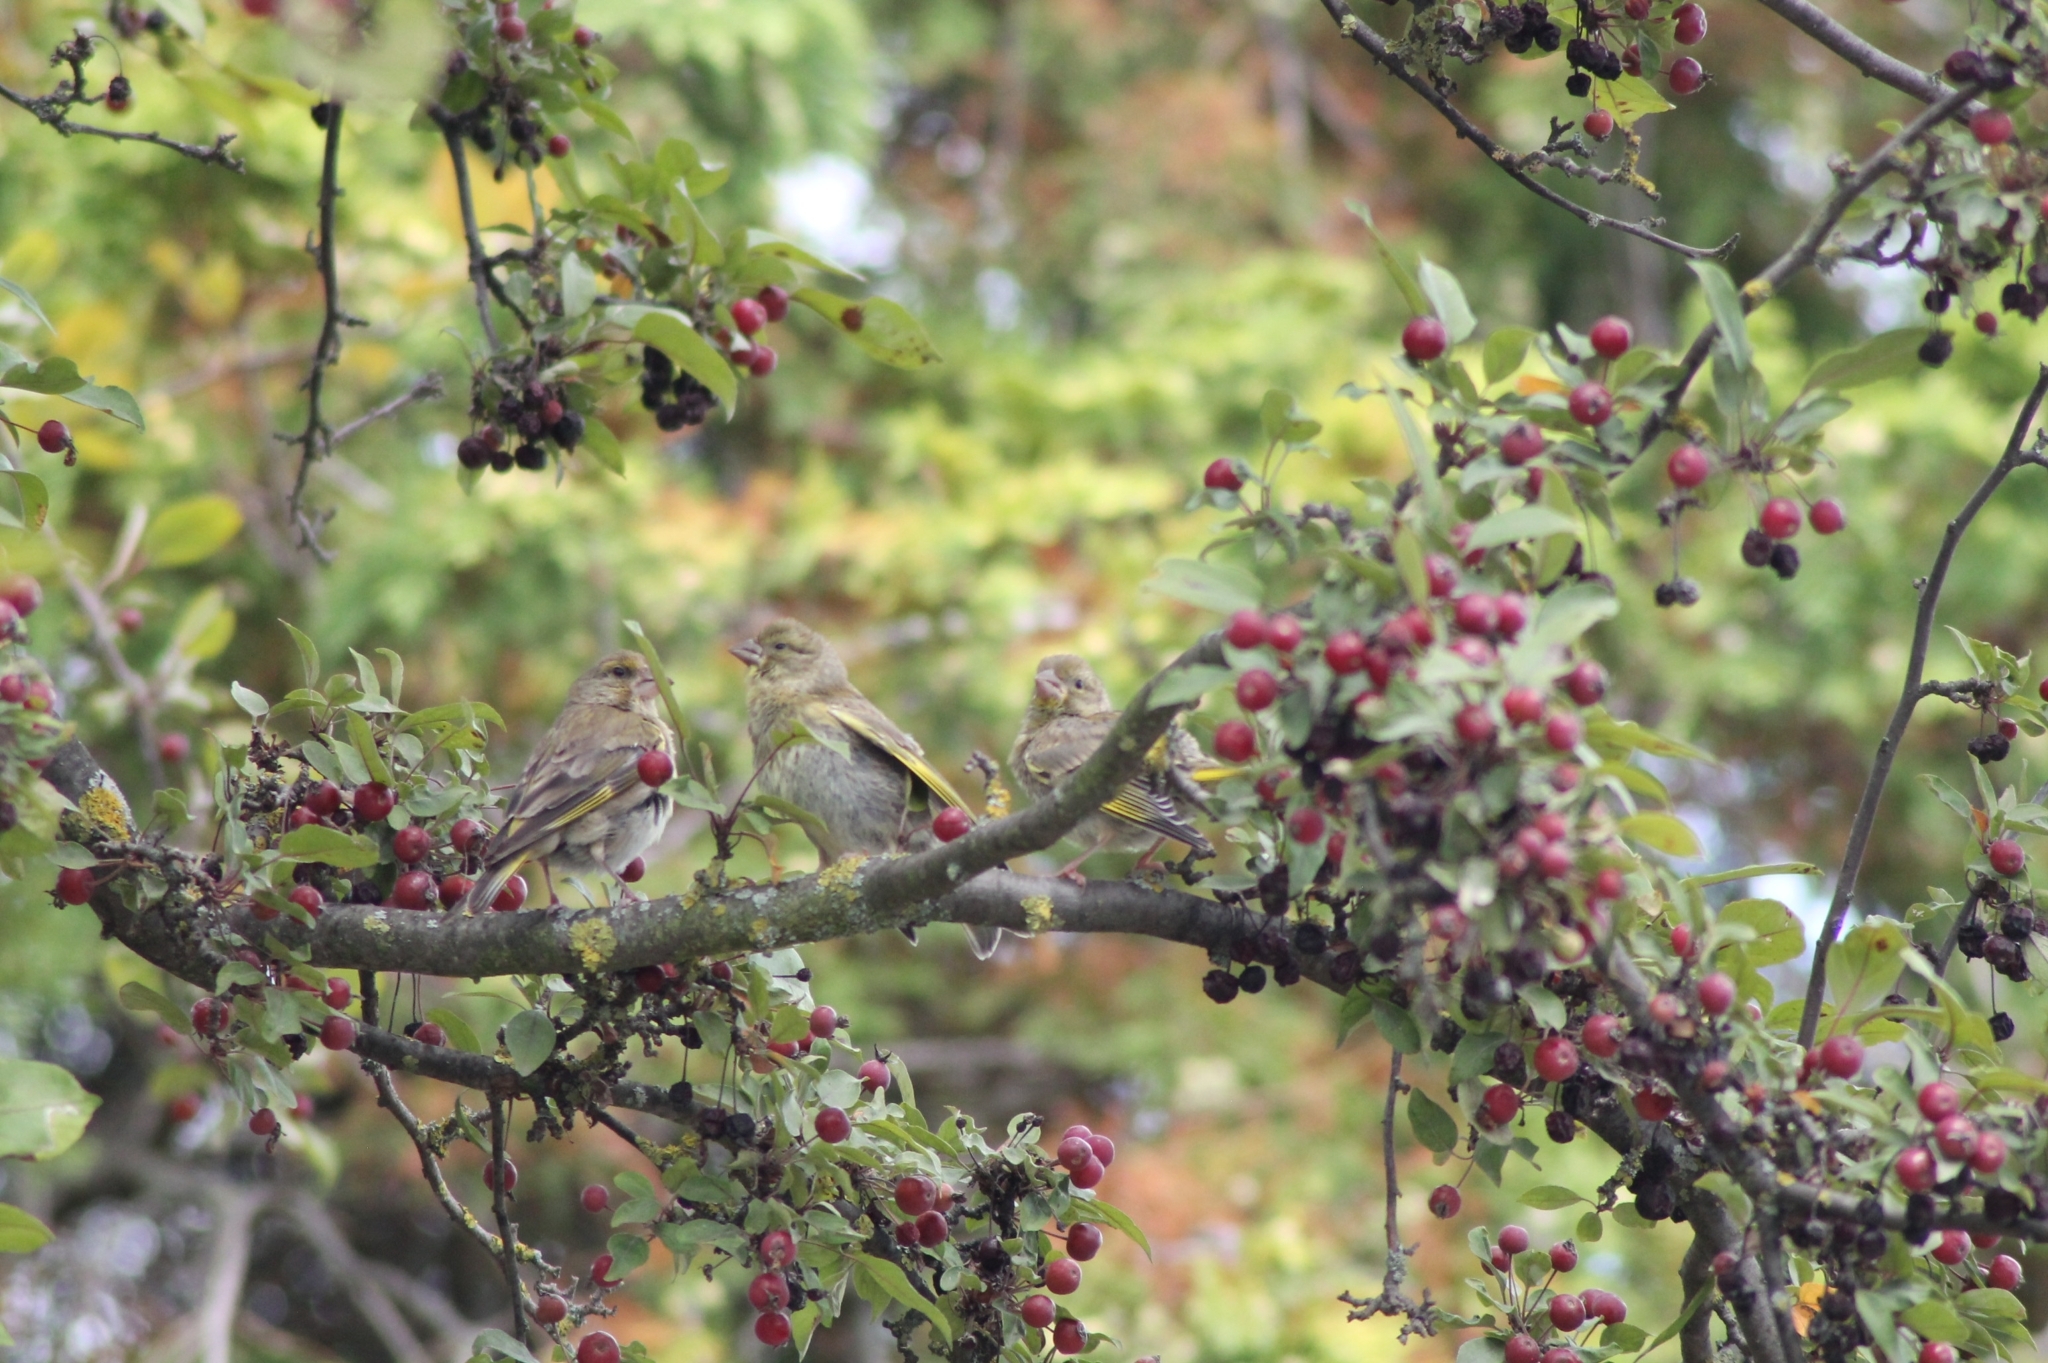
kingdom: Plantae
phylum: Tracheophyta
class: Liliopsida
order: Poales
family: Poaceae
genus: Chloris
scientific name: Chloris chloris
